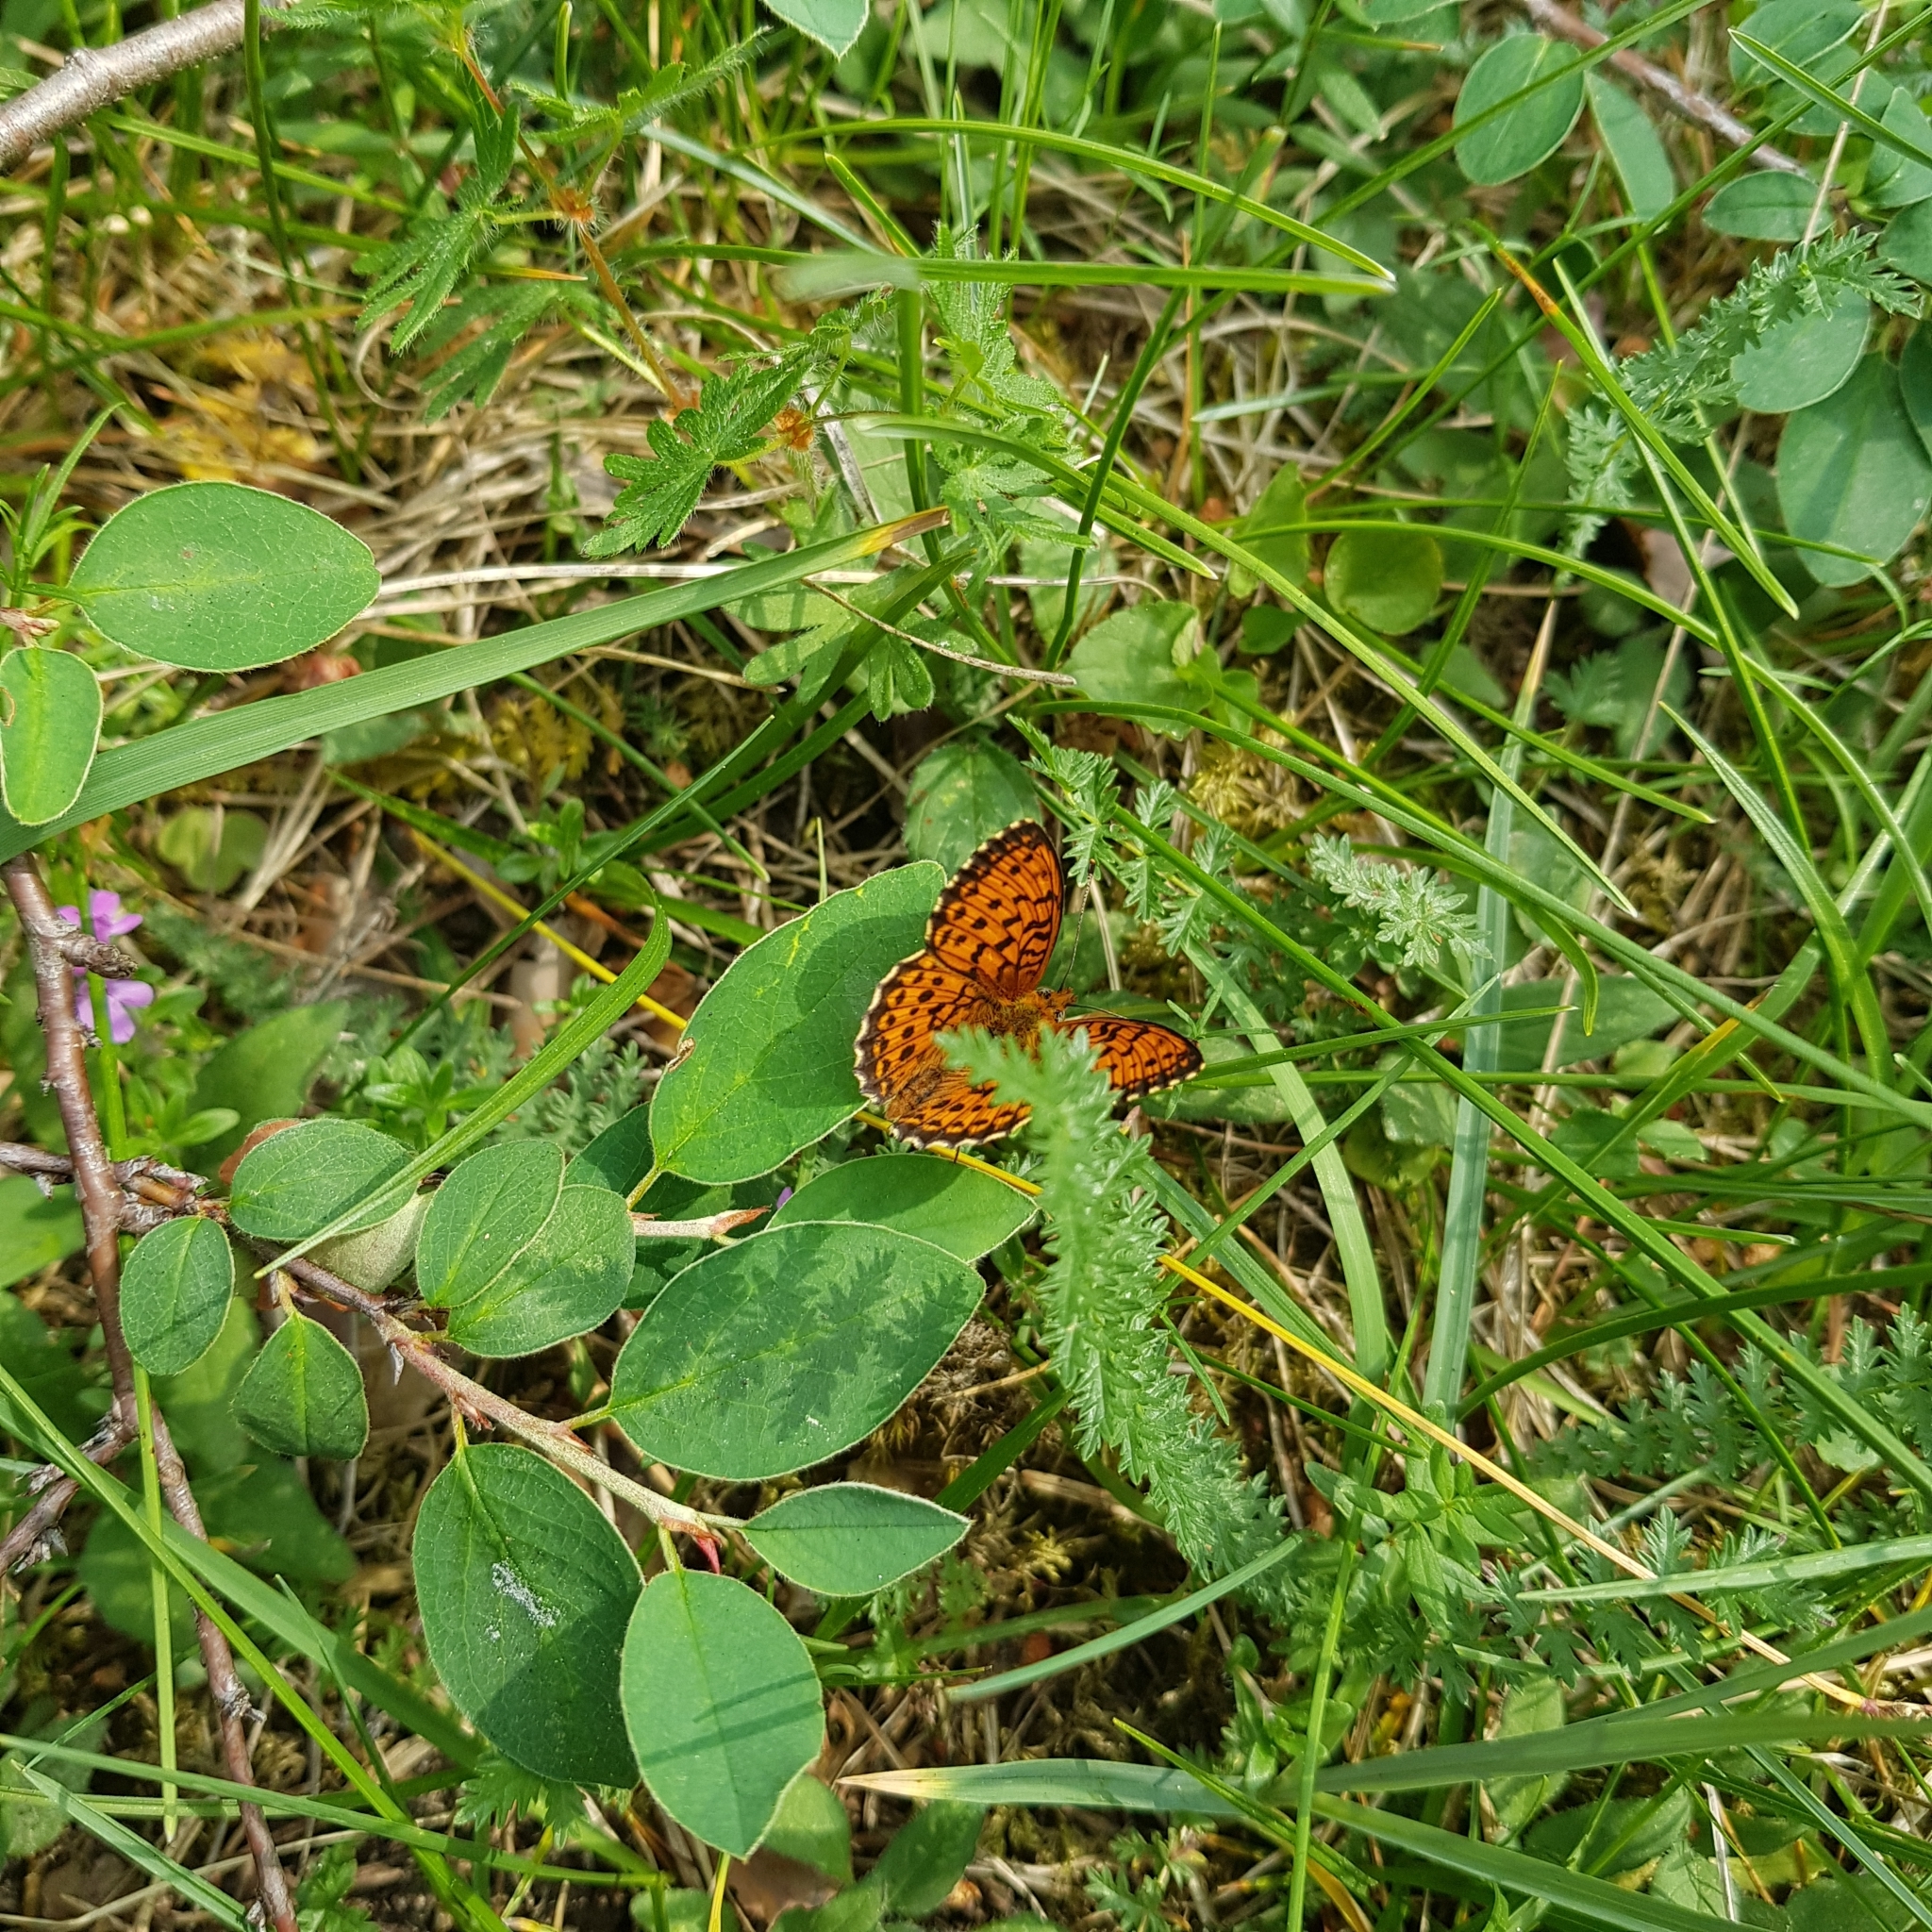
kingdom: Animalia
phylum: Arthropoda
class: Insecta
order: Lepidoptera
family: Nymphalidae
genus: Brenthis
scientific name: Brenthis ino
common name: Lesser marbled fritillary
